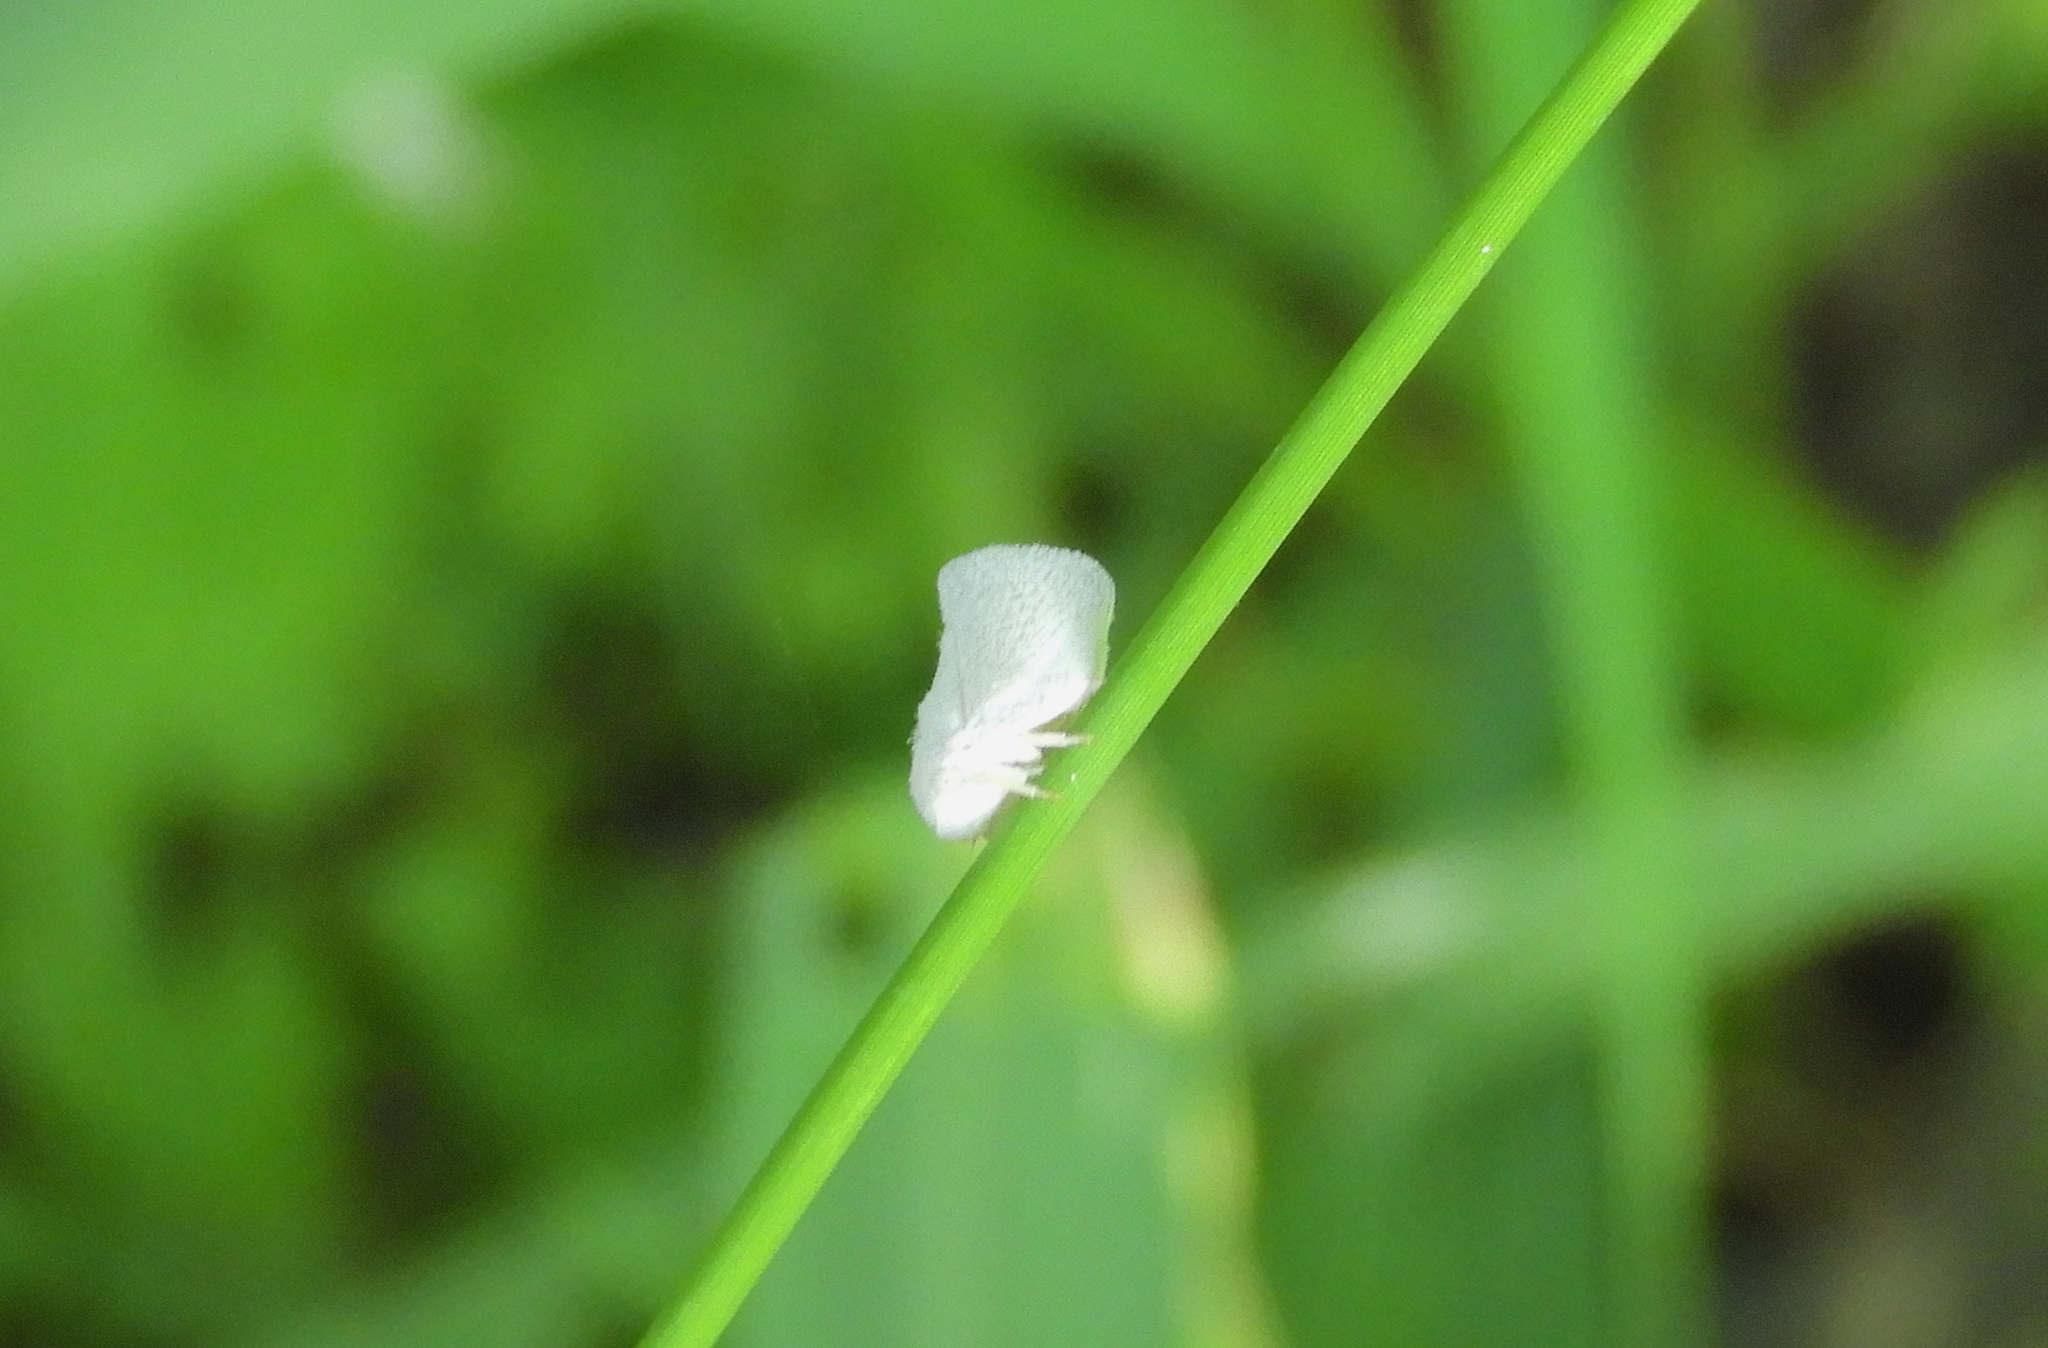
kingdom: Animalia
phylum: Arthropoda
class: Insecta
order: Hemiptera
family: Flatidae
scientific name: Flatidae
